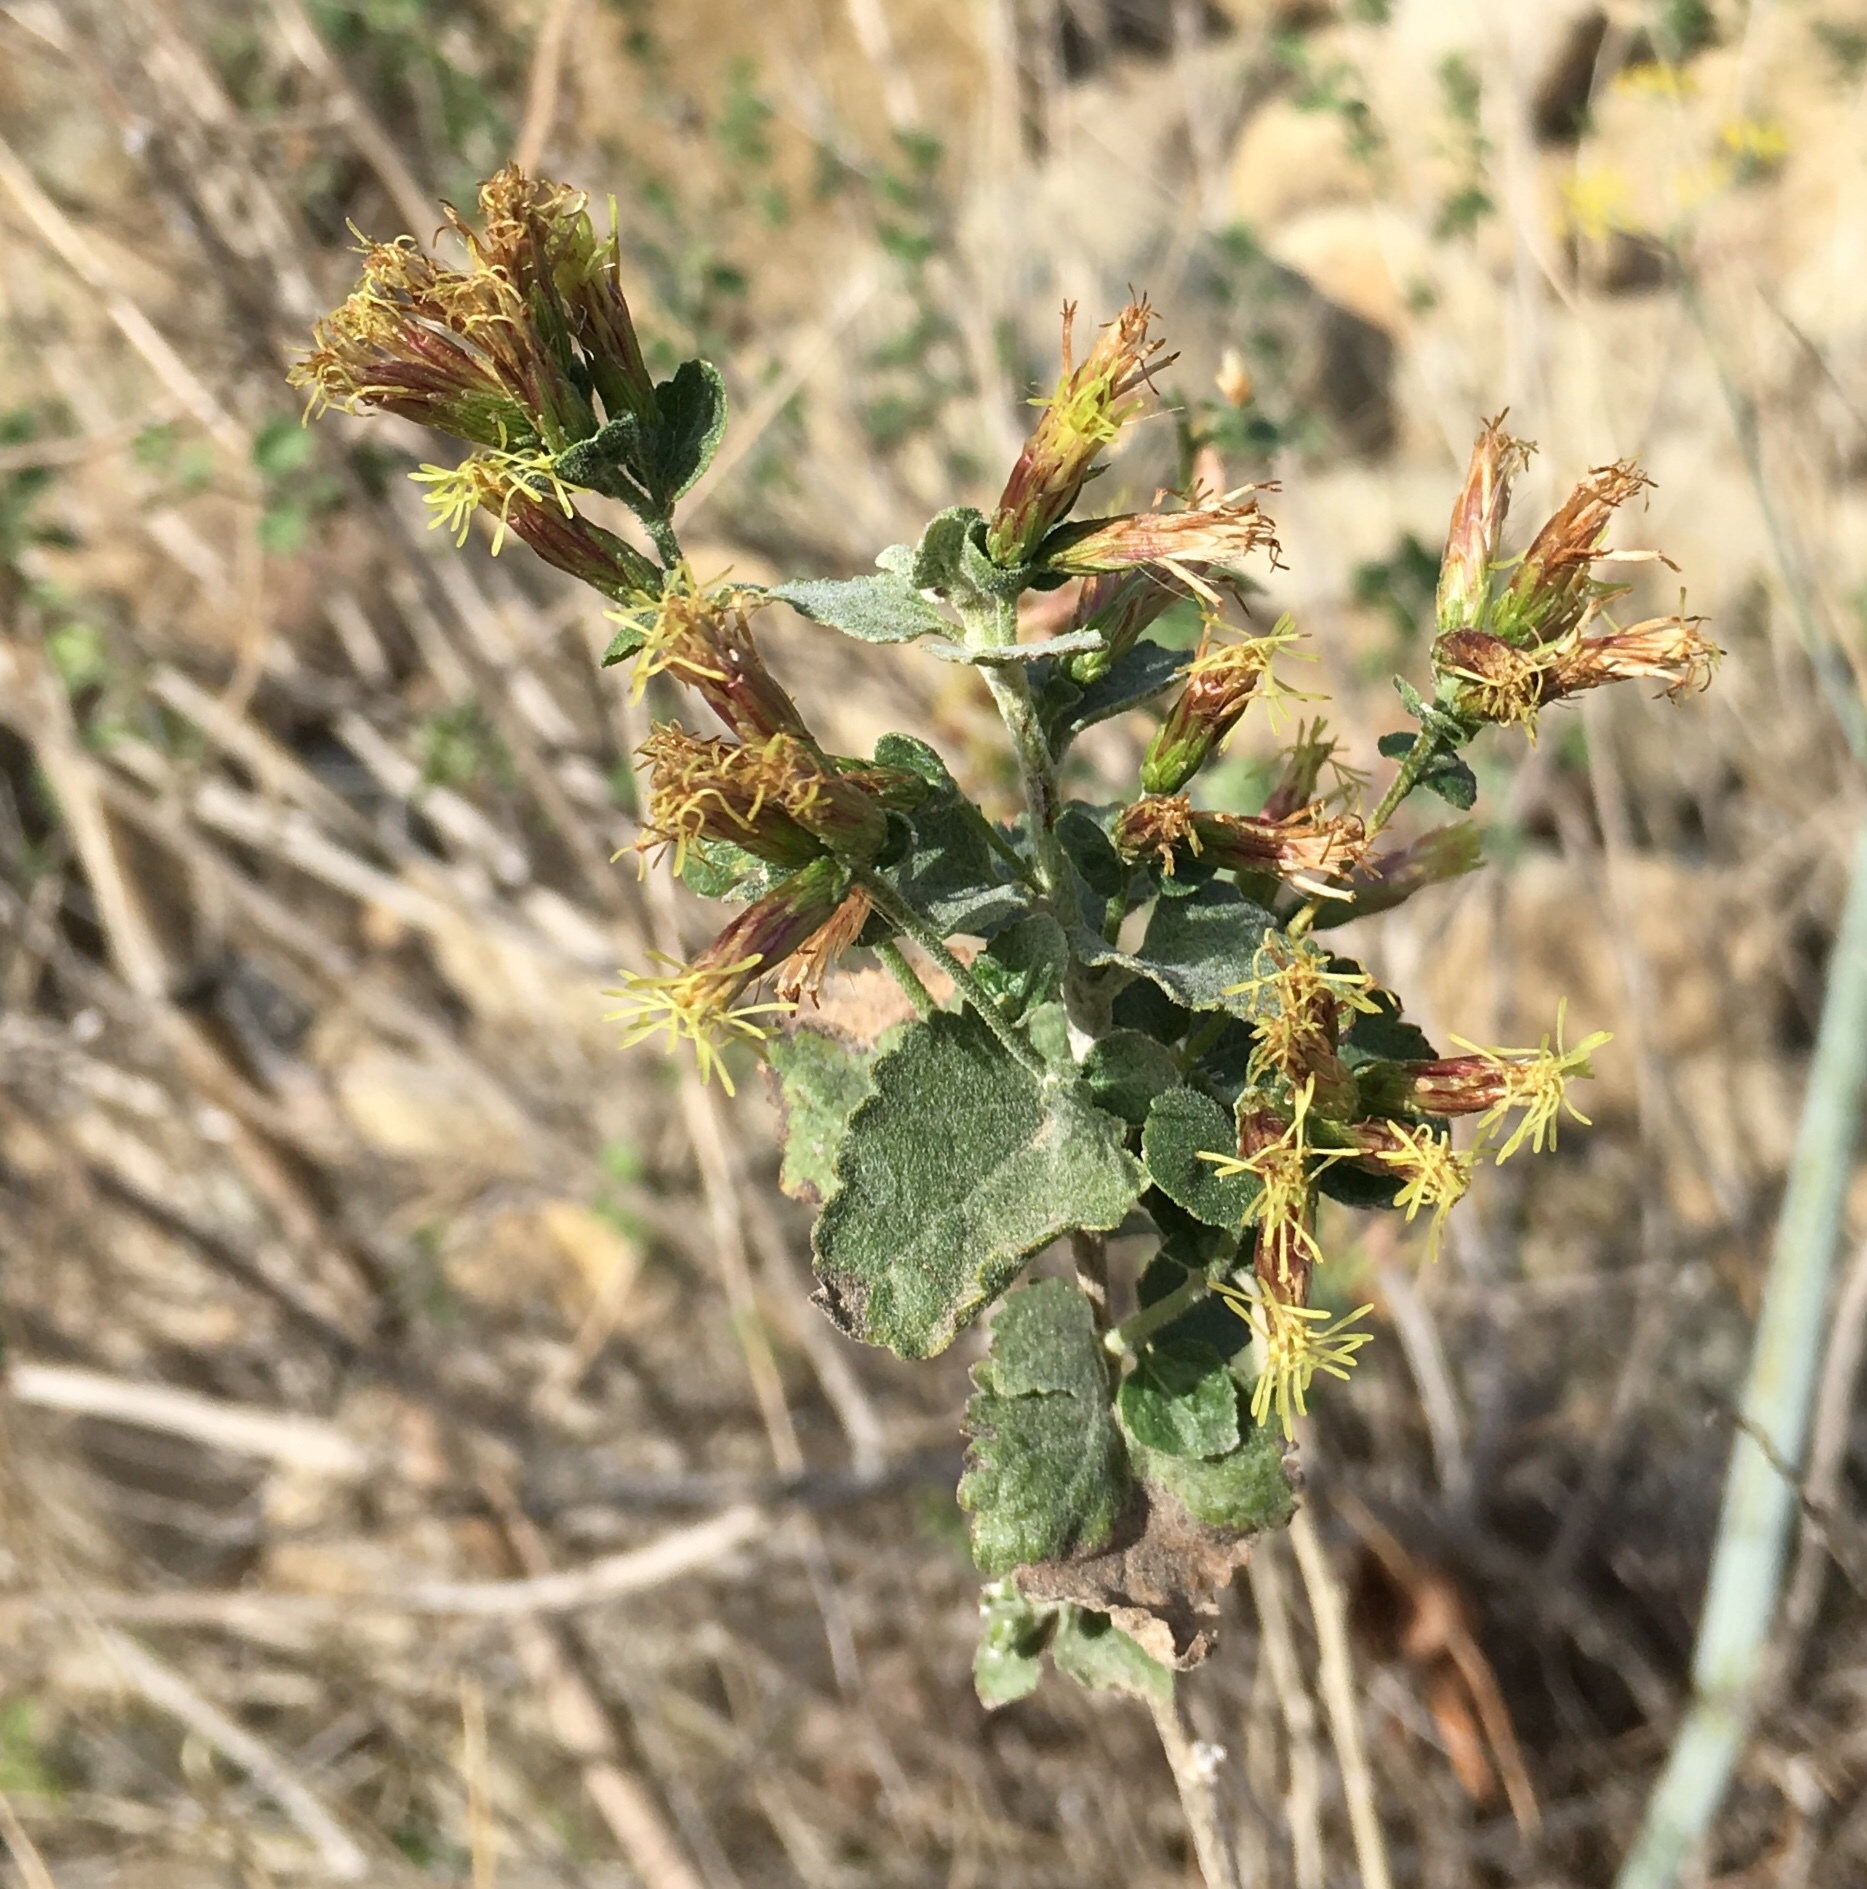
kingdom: Plantae
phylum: Tracheophyta
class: Magnoliopsida
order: Asterales
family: Asteraceae
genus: Brickellia
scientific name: Brickellia californica
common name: California brickellbush
